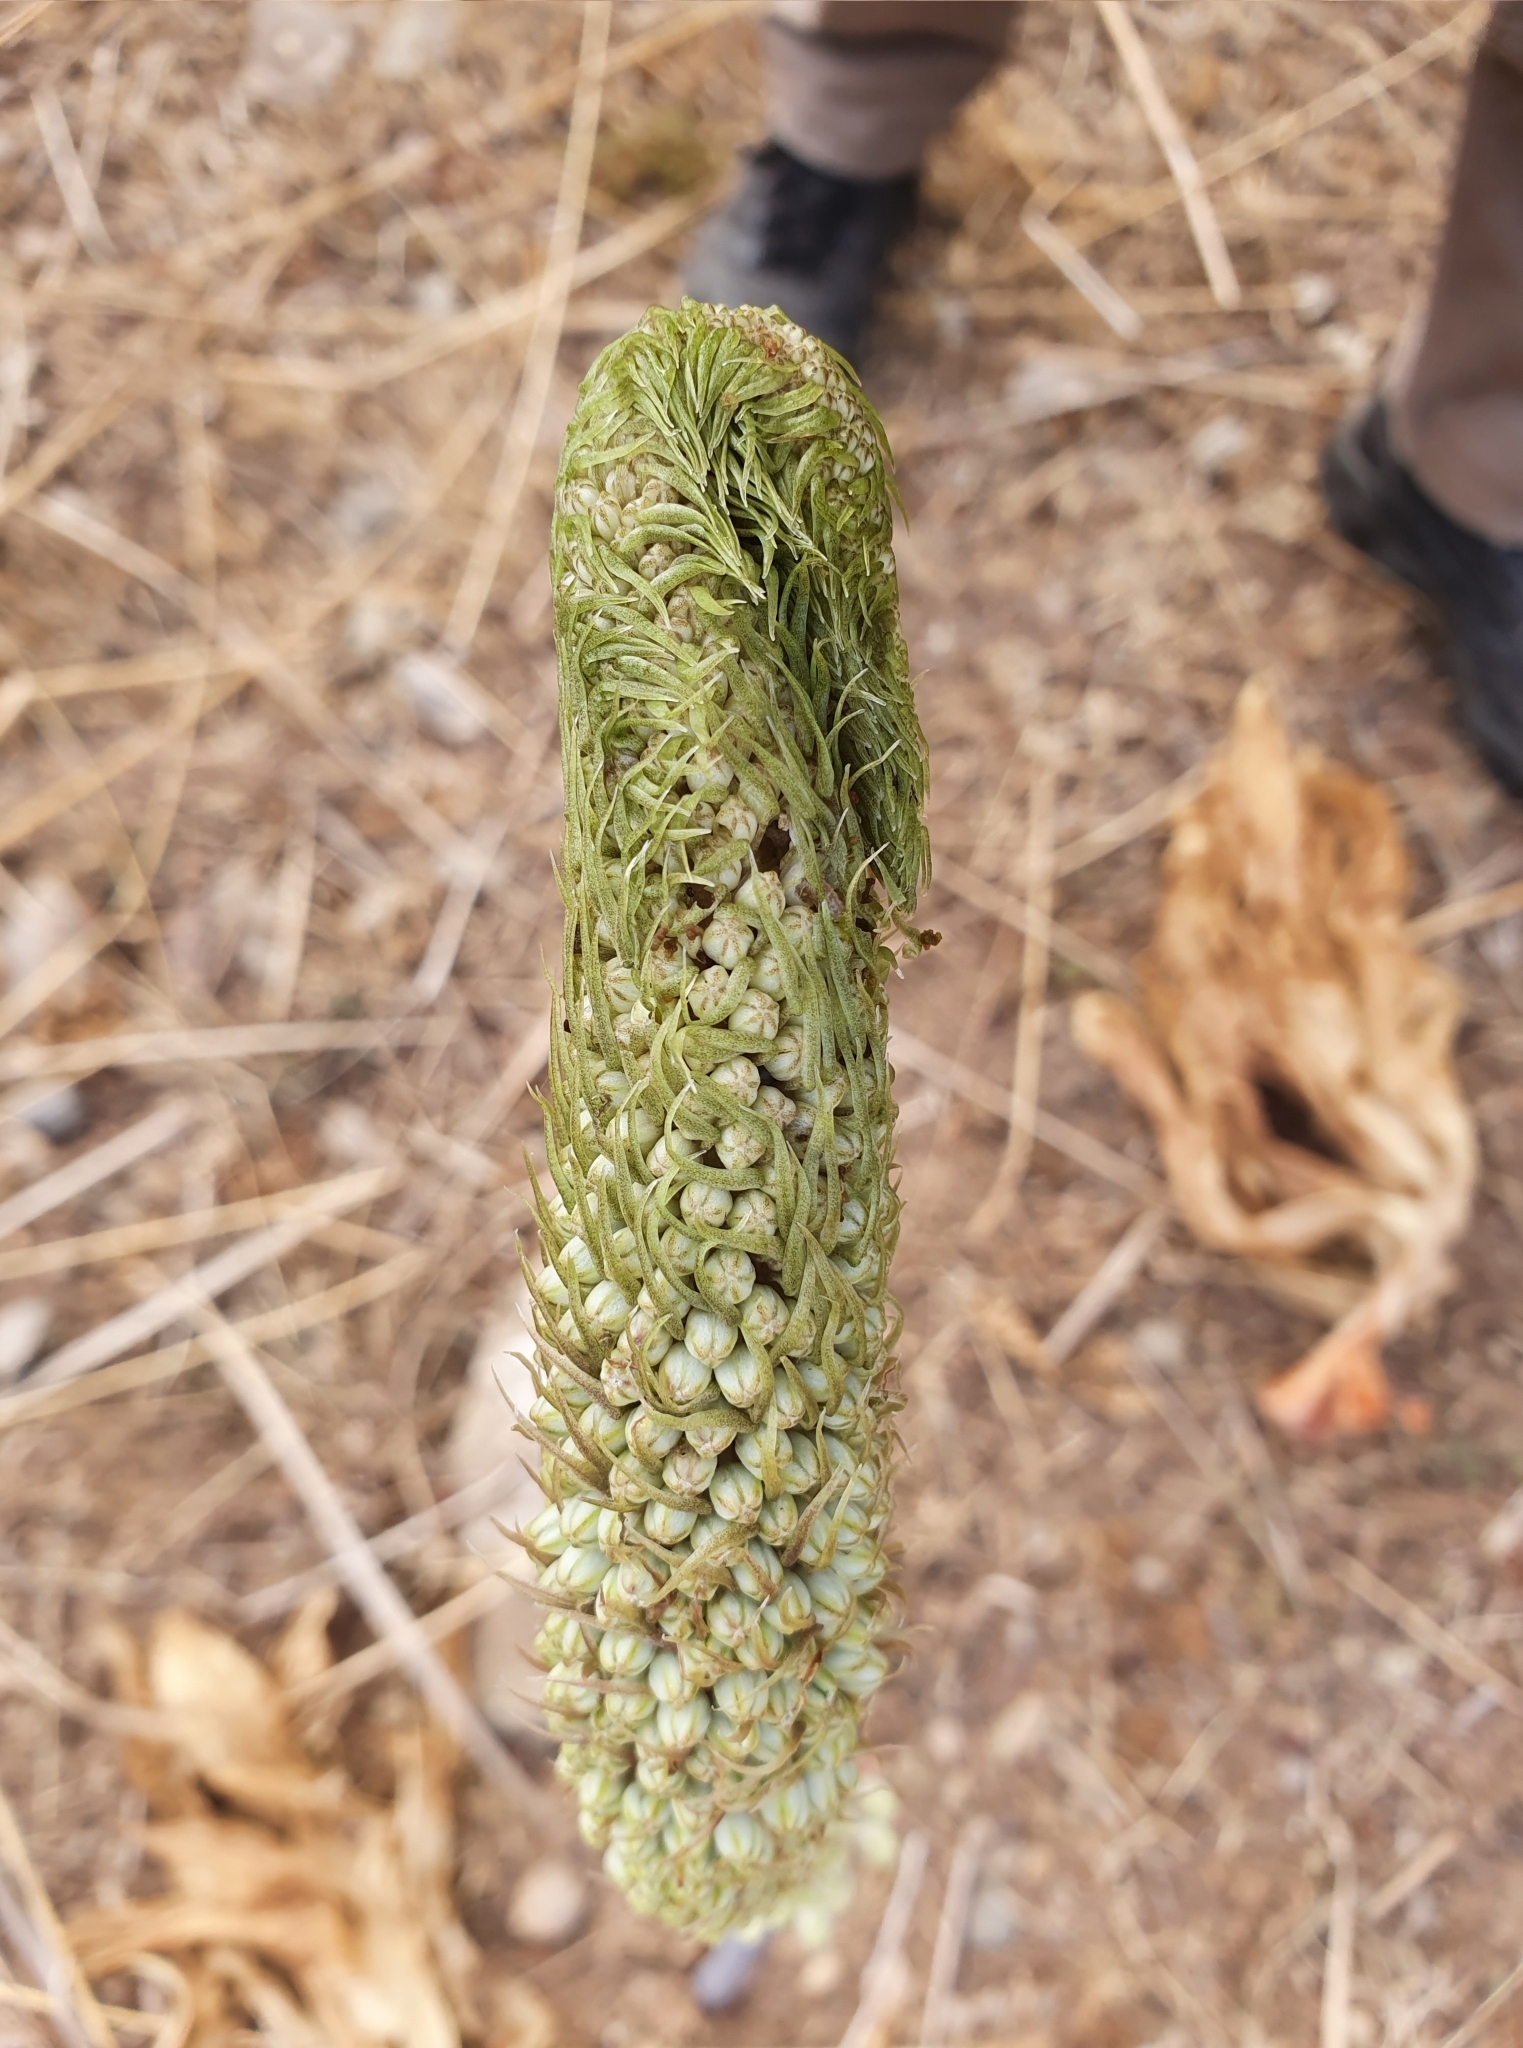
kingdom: Plantae
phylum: Tracheophyta
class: Liliopsida
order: Asparagales
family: Asparagaceae
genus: Drimia
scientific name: Drimia numidica
